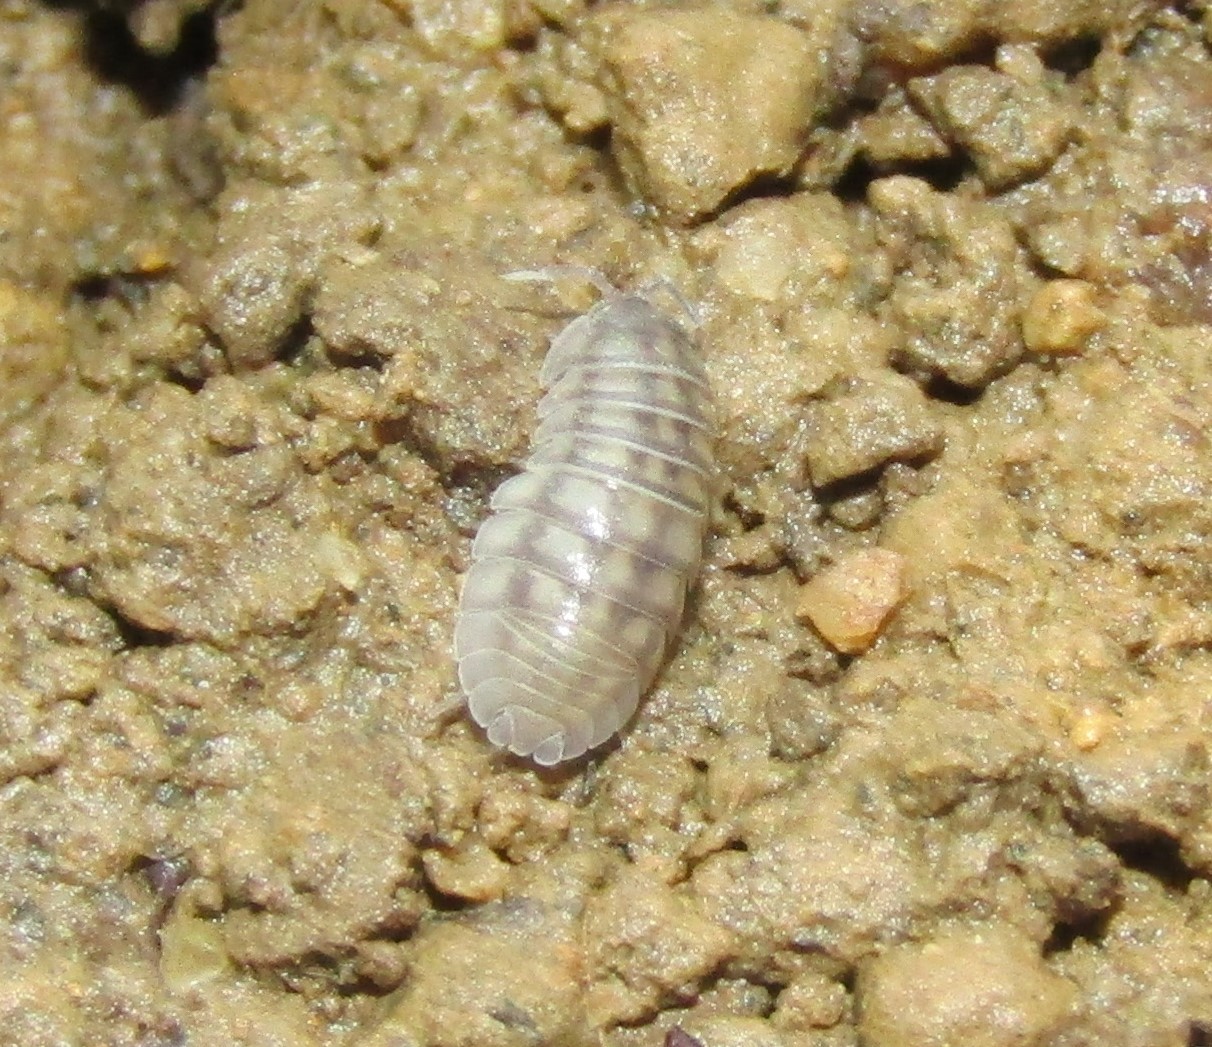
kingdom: Animalia
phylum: Arthropoda
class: Malacostraca
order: Isopoda
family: Armadillidiidae
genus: Armadillidium
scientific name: Armadillidium nasatum
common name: Isopod
